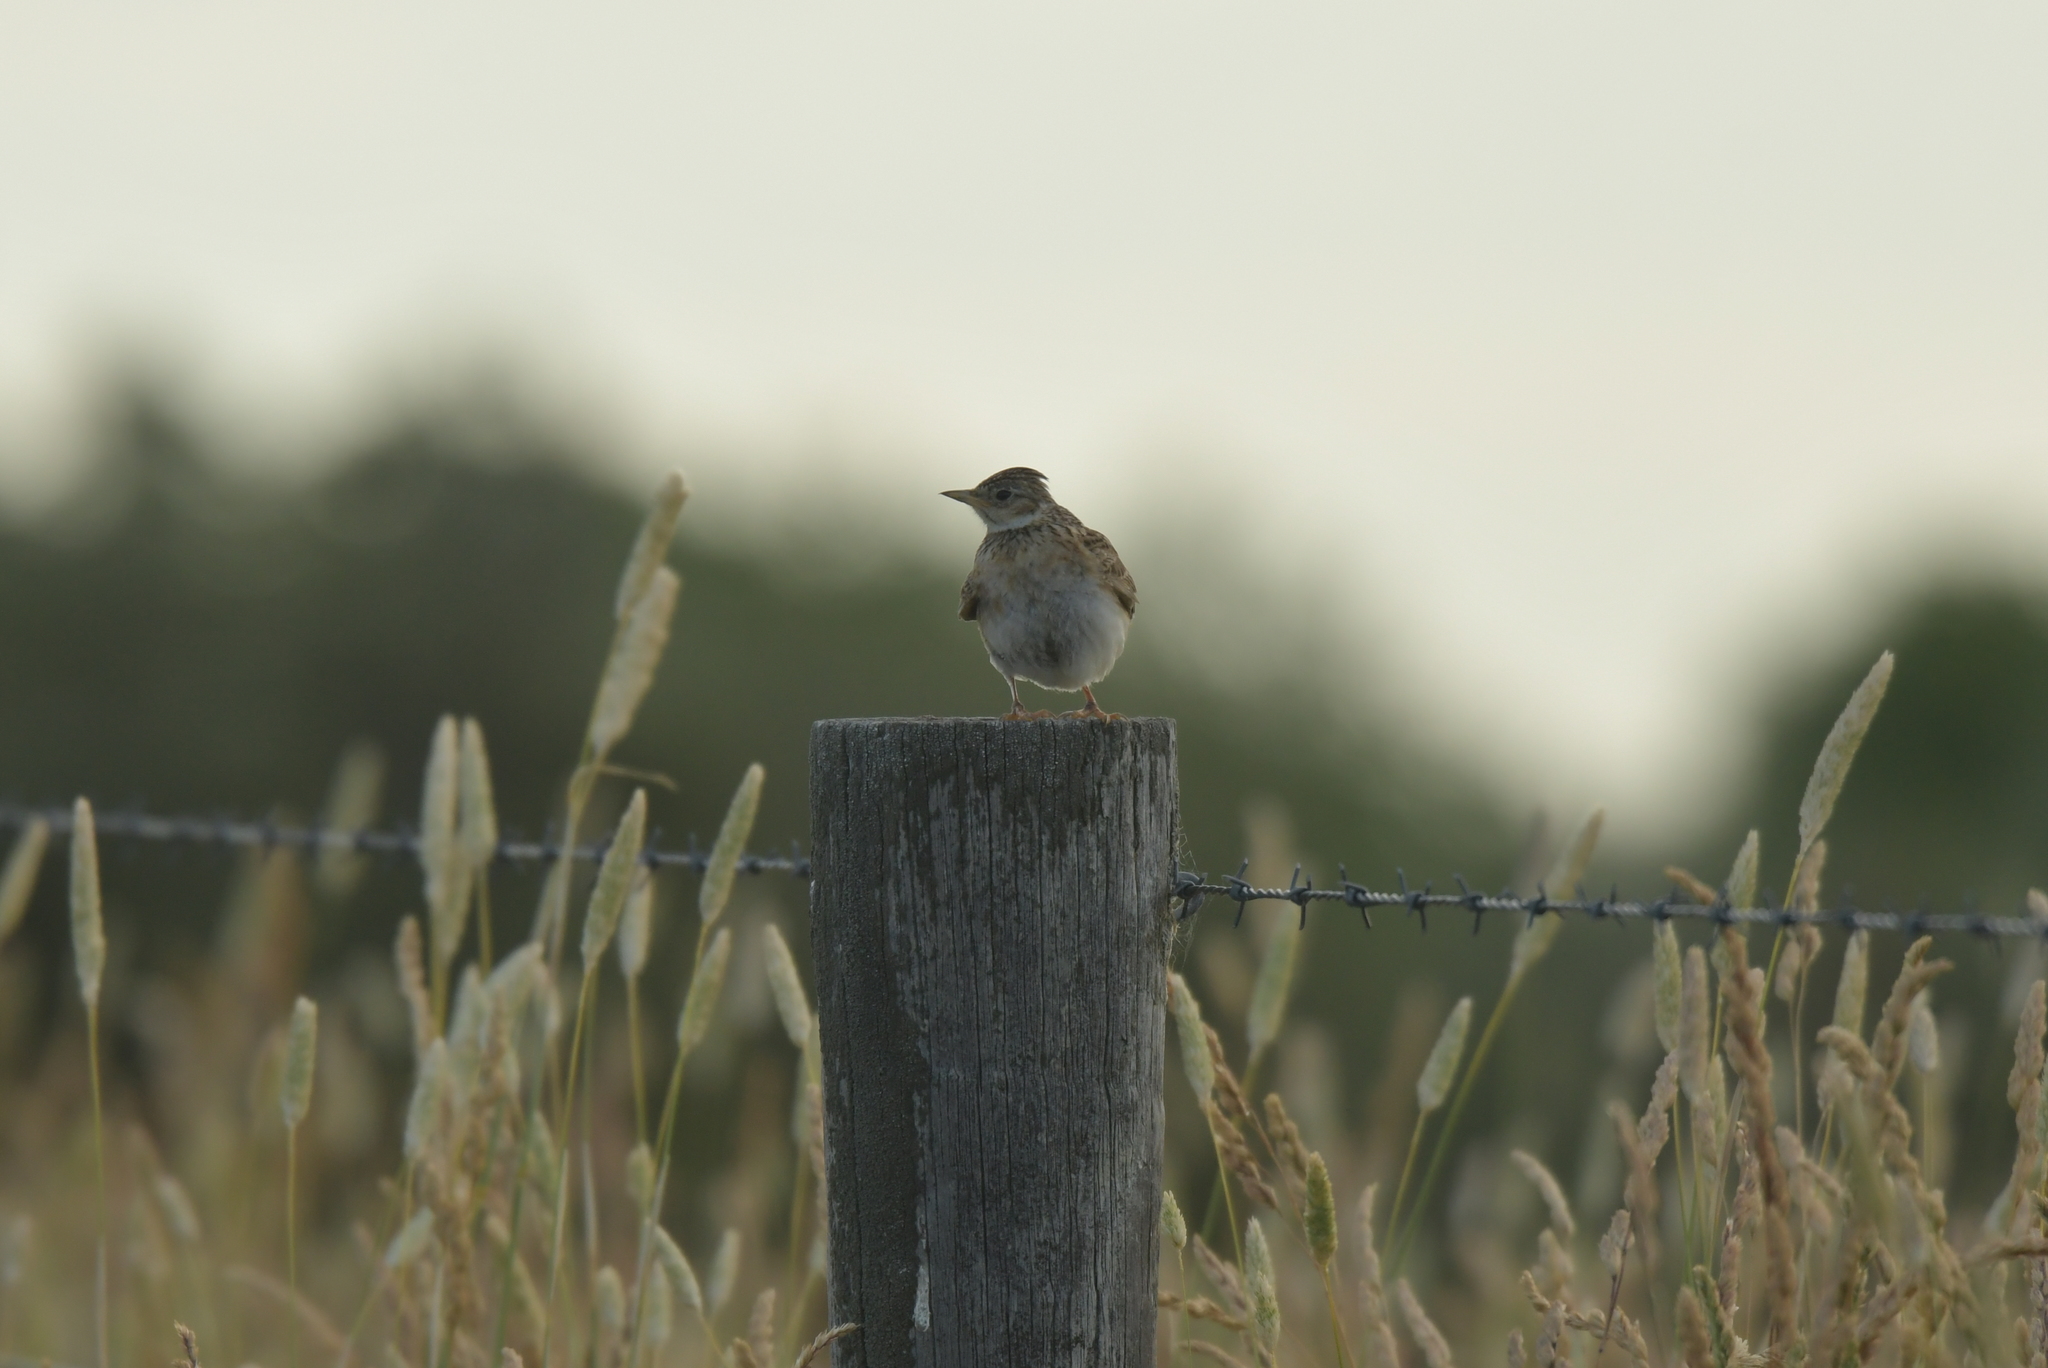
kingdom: Animalia
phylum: Chordata
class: Aves
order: Passeriformes
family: Alaudidae
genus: Alauda
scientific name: Alauda arvensis
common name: Eurasian skylark
